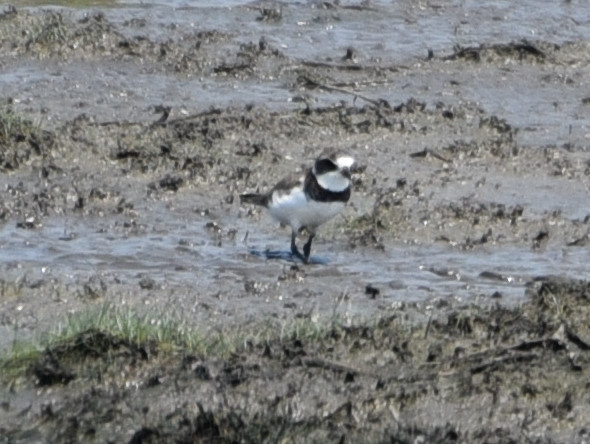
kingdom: Animalia
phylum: Chordata
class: Aves
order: Charadriiformes
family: Charadriidae
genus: Charadrius
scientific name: Charadrius semipalmatus
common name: Semipalmated plover
